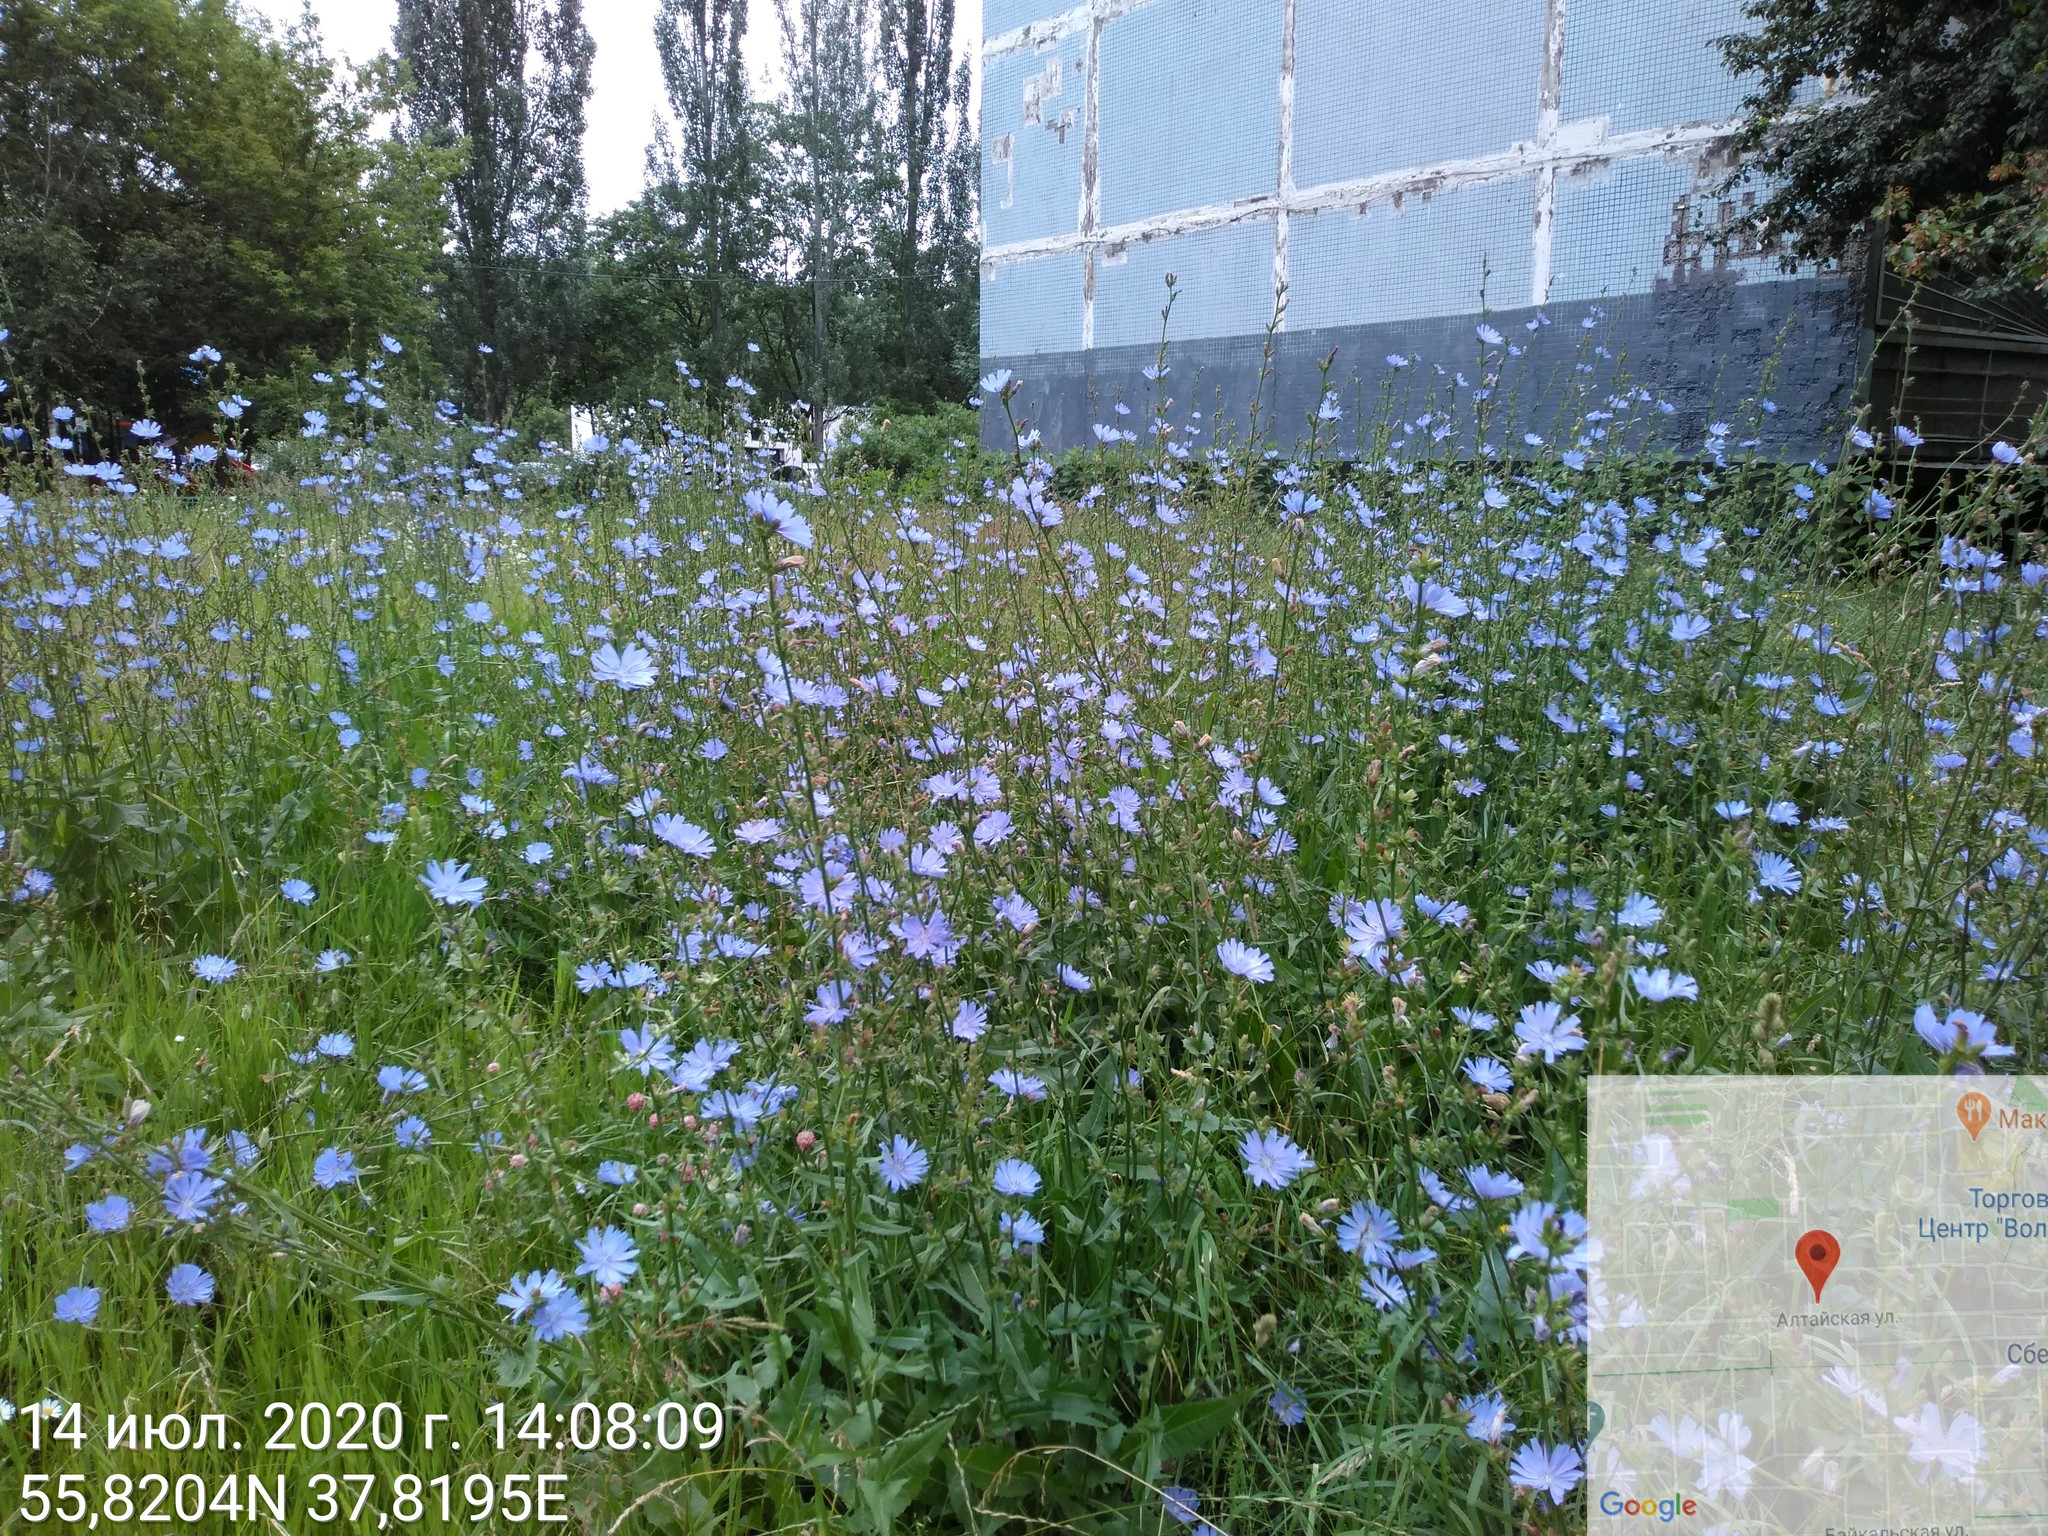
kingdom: Plantae
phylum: Tracheophyta
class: Magnoliopsida
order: Asterales
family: Asteraceae
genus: Cichorium
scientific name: Cichorium intybus
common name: Chicory
